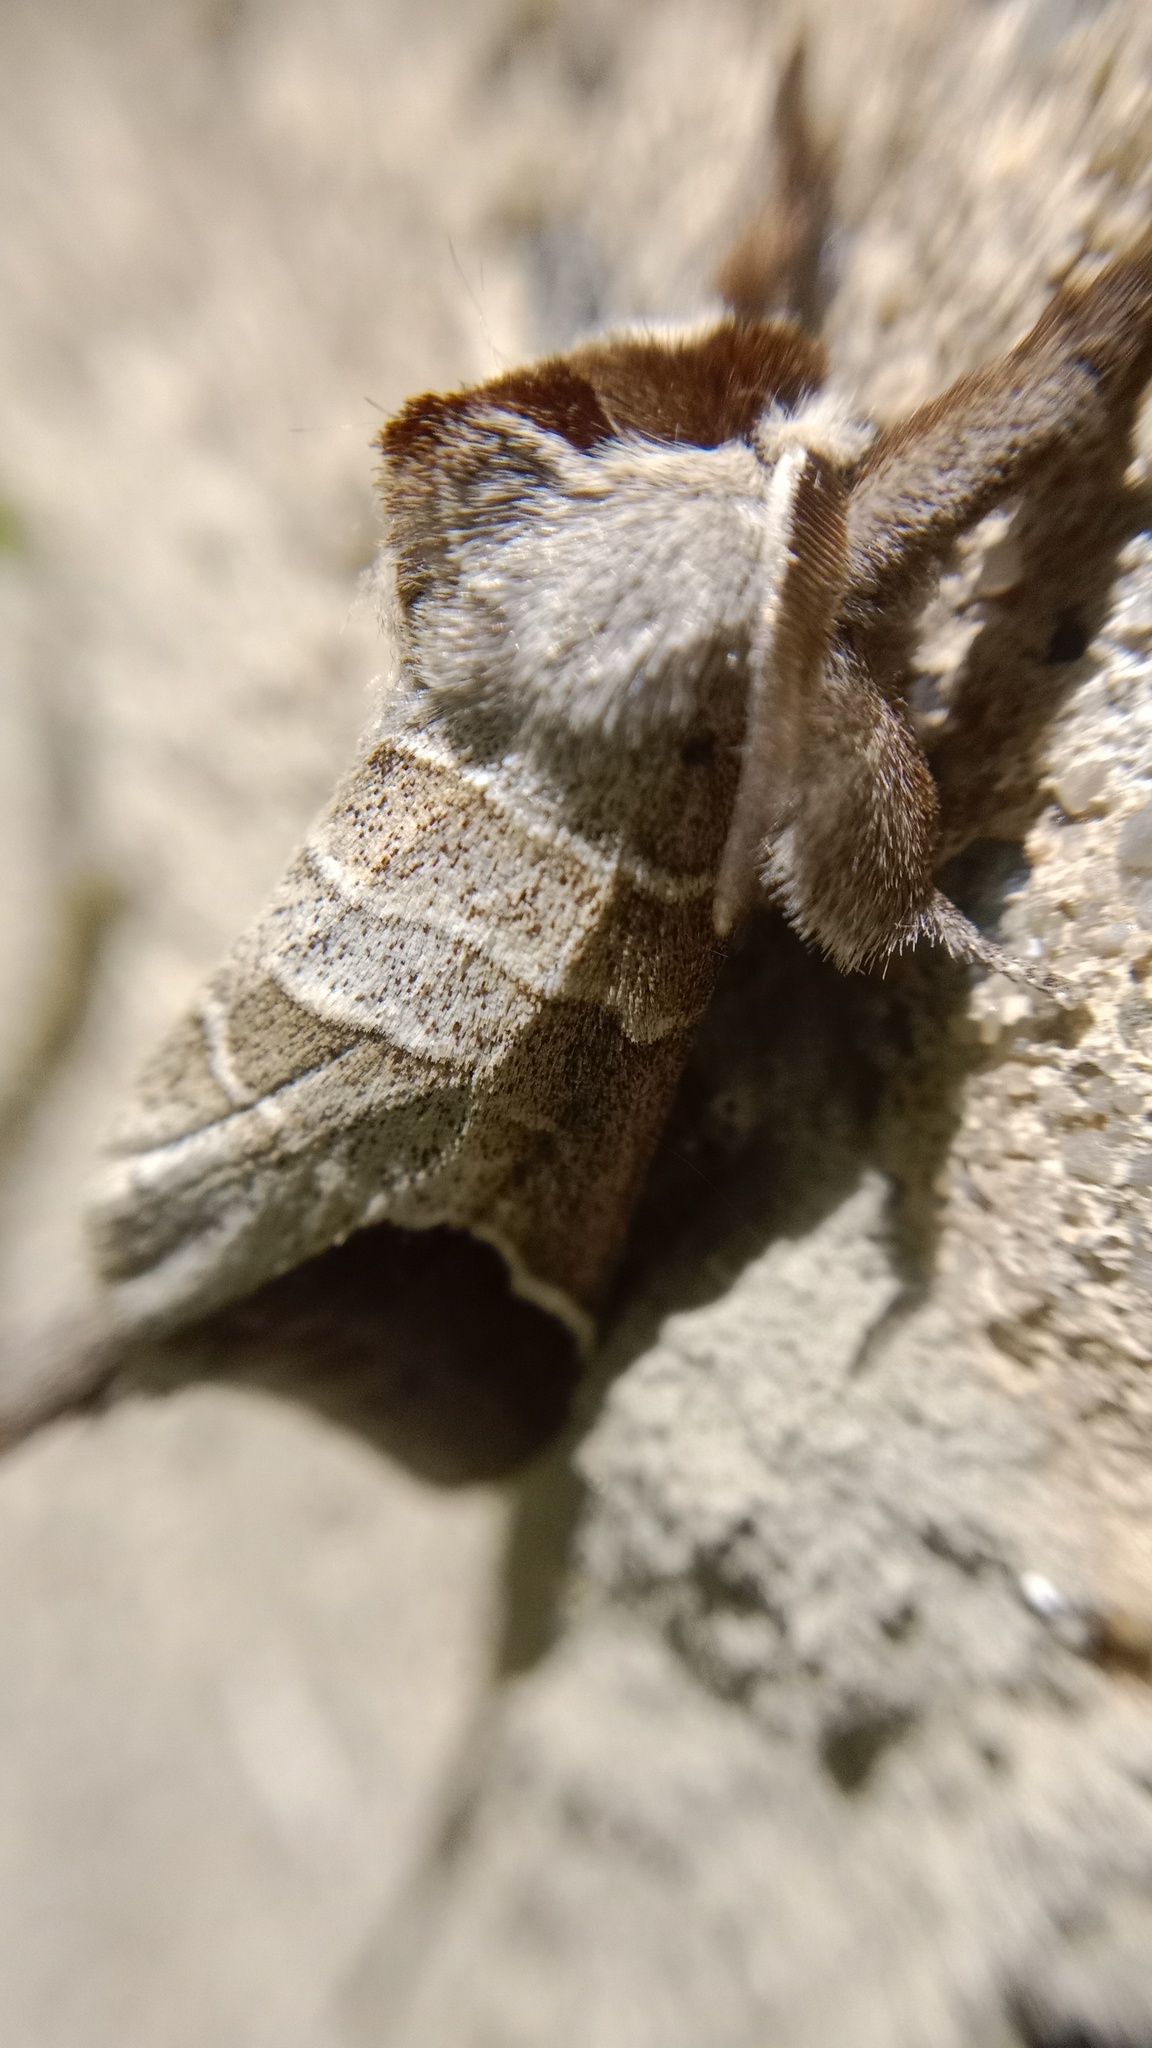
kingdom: Animalia
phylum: Arthropoda
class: Insecta
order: Lepidoptera
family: Notodontidae
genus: Clostera
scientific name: Clostera curtula
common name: Chocolate-tip
